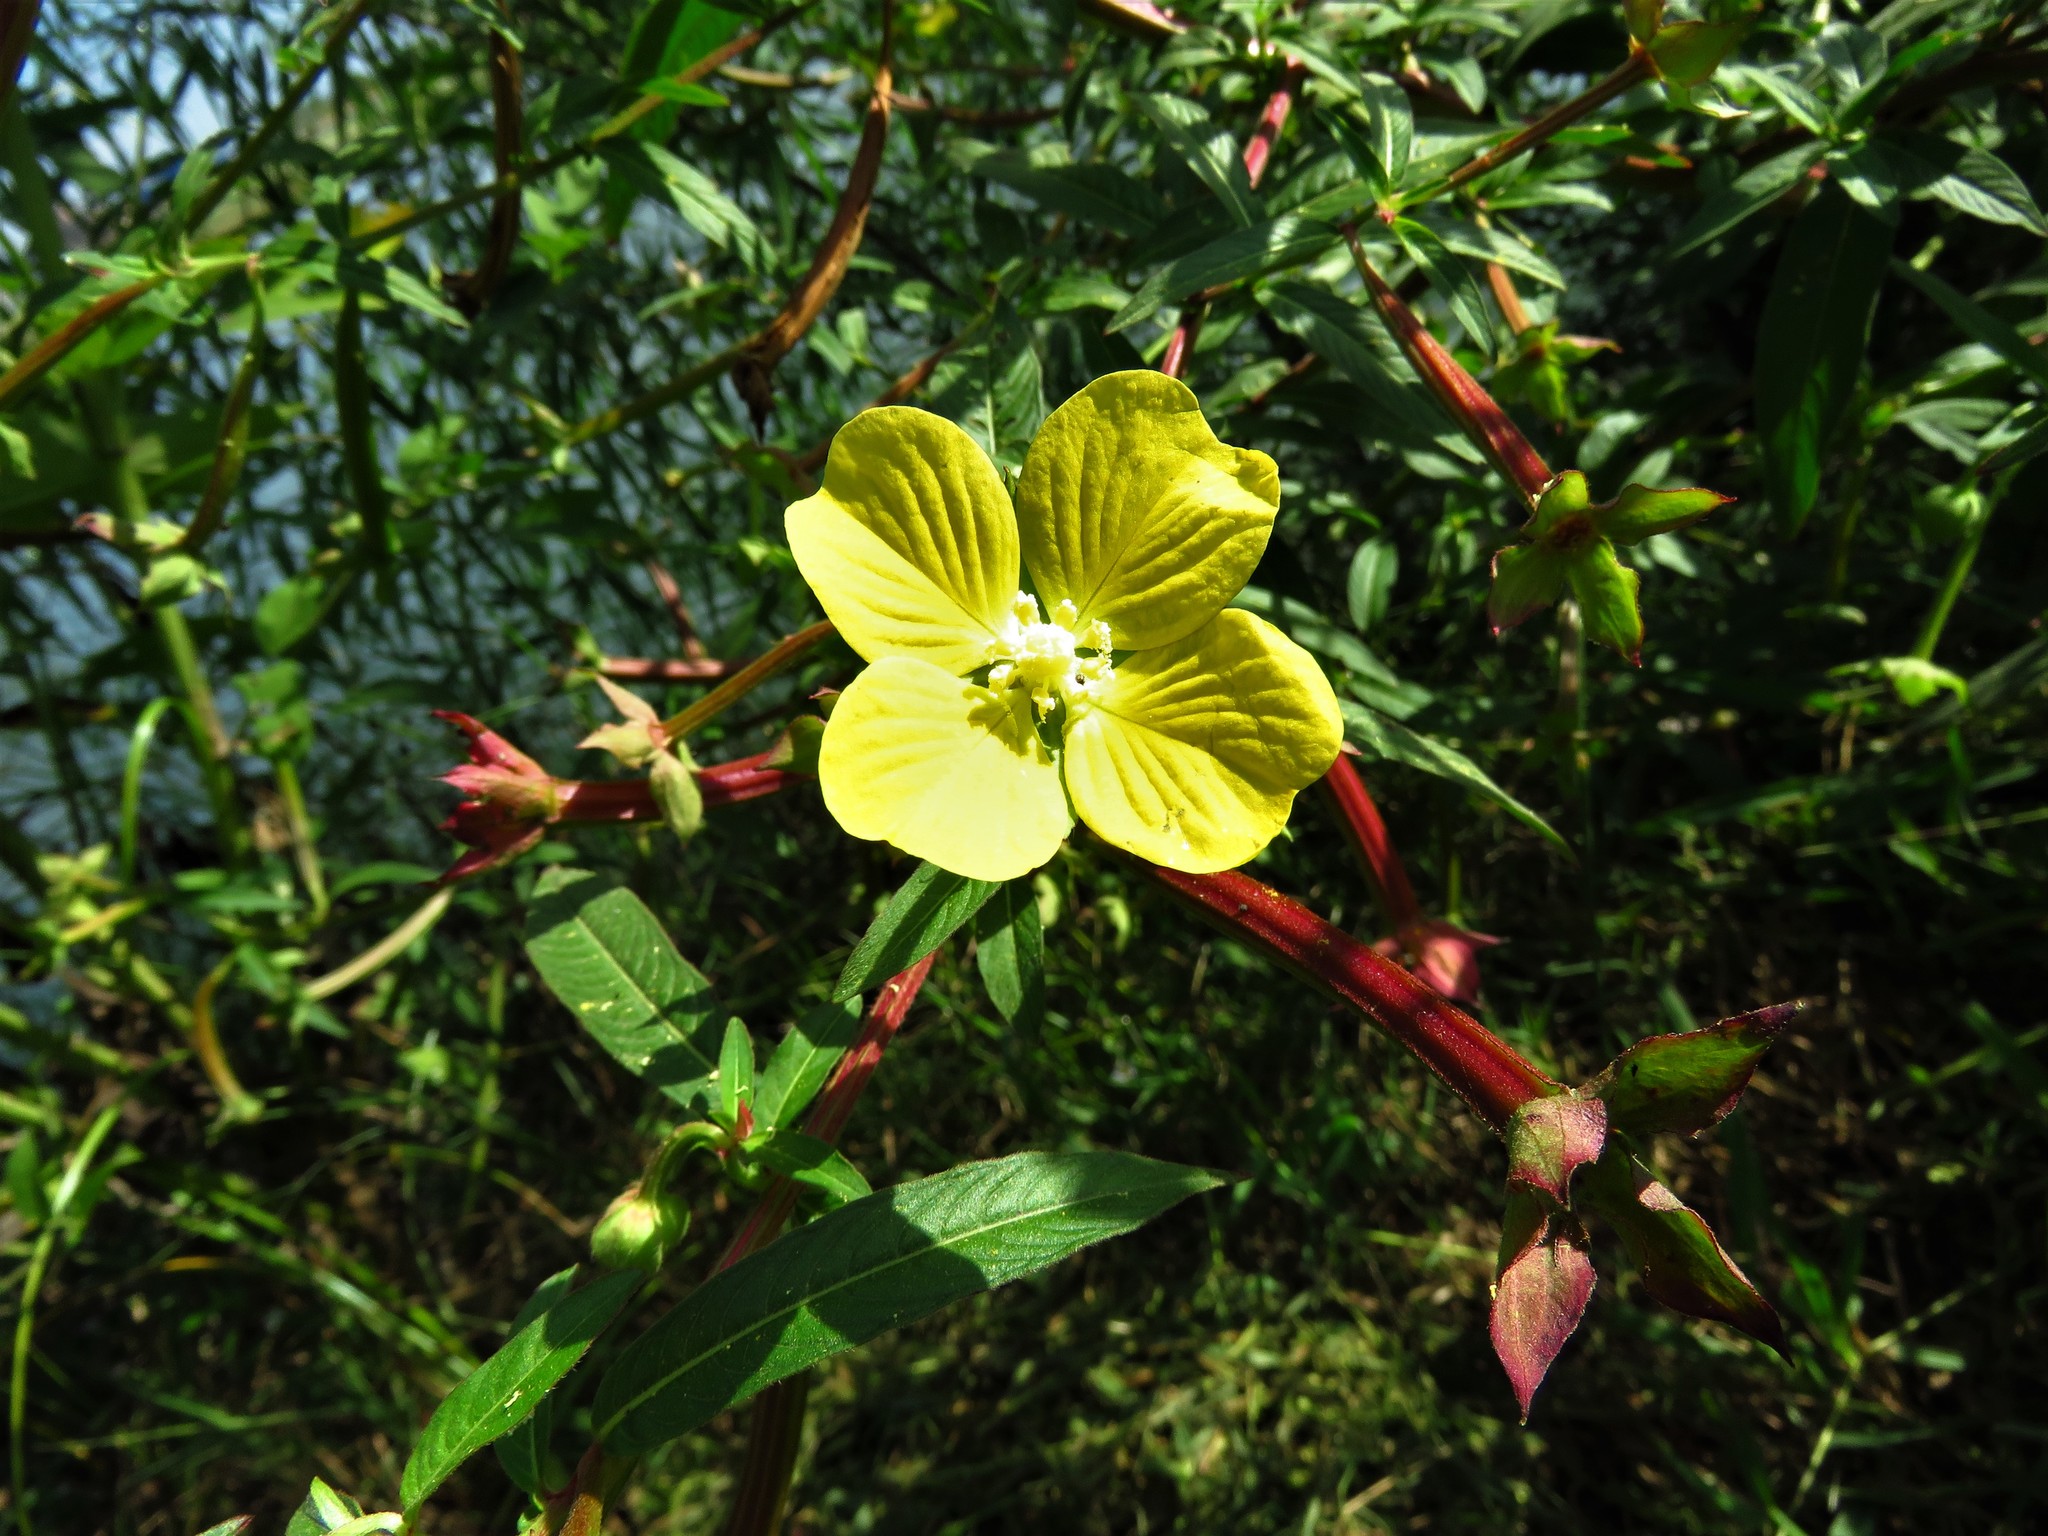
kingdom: Plantae
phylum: Tracheophyta
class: Magnoliopsida
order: Myrtales
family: Onagraceae
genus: Ludwigia
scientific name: Ludwigia octovalvis
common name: Water-primrose
